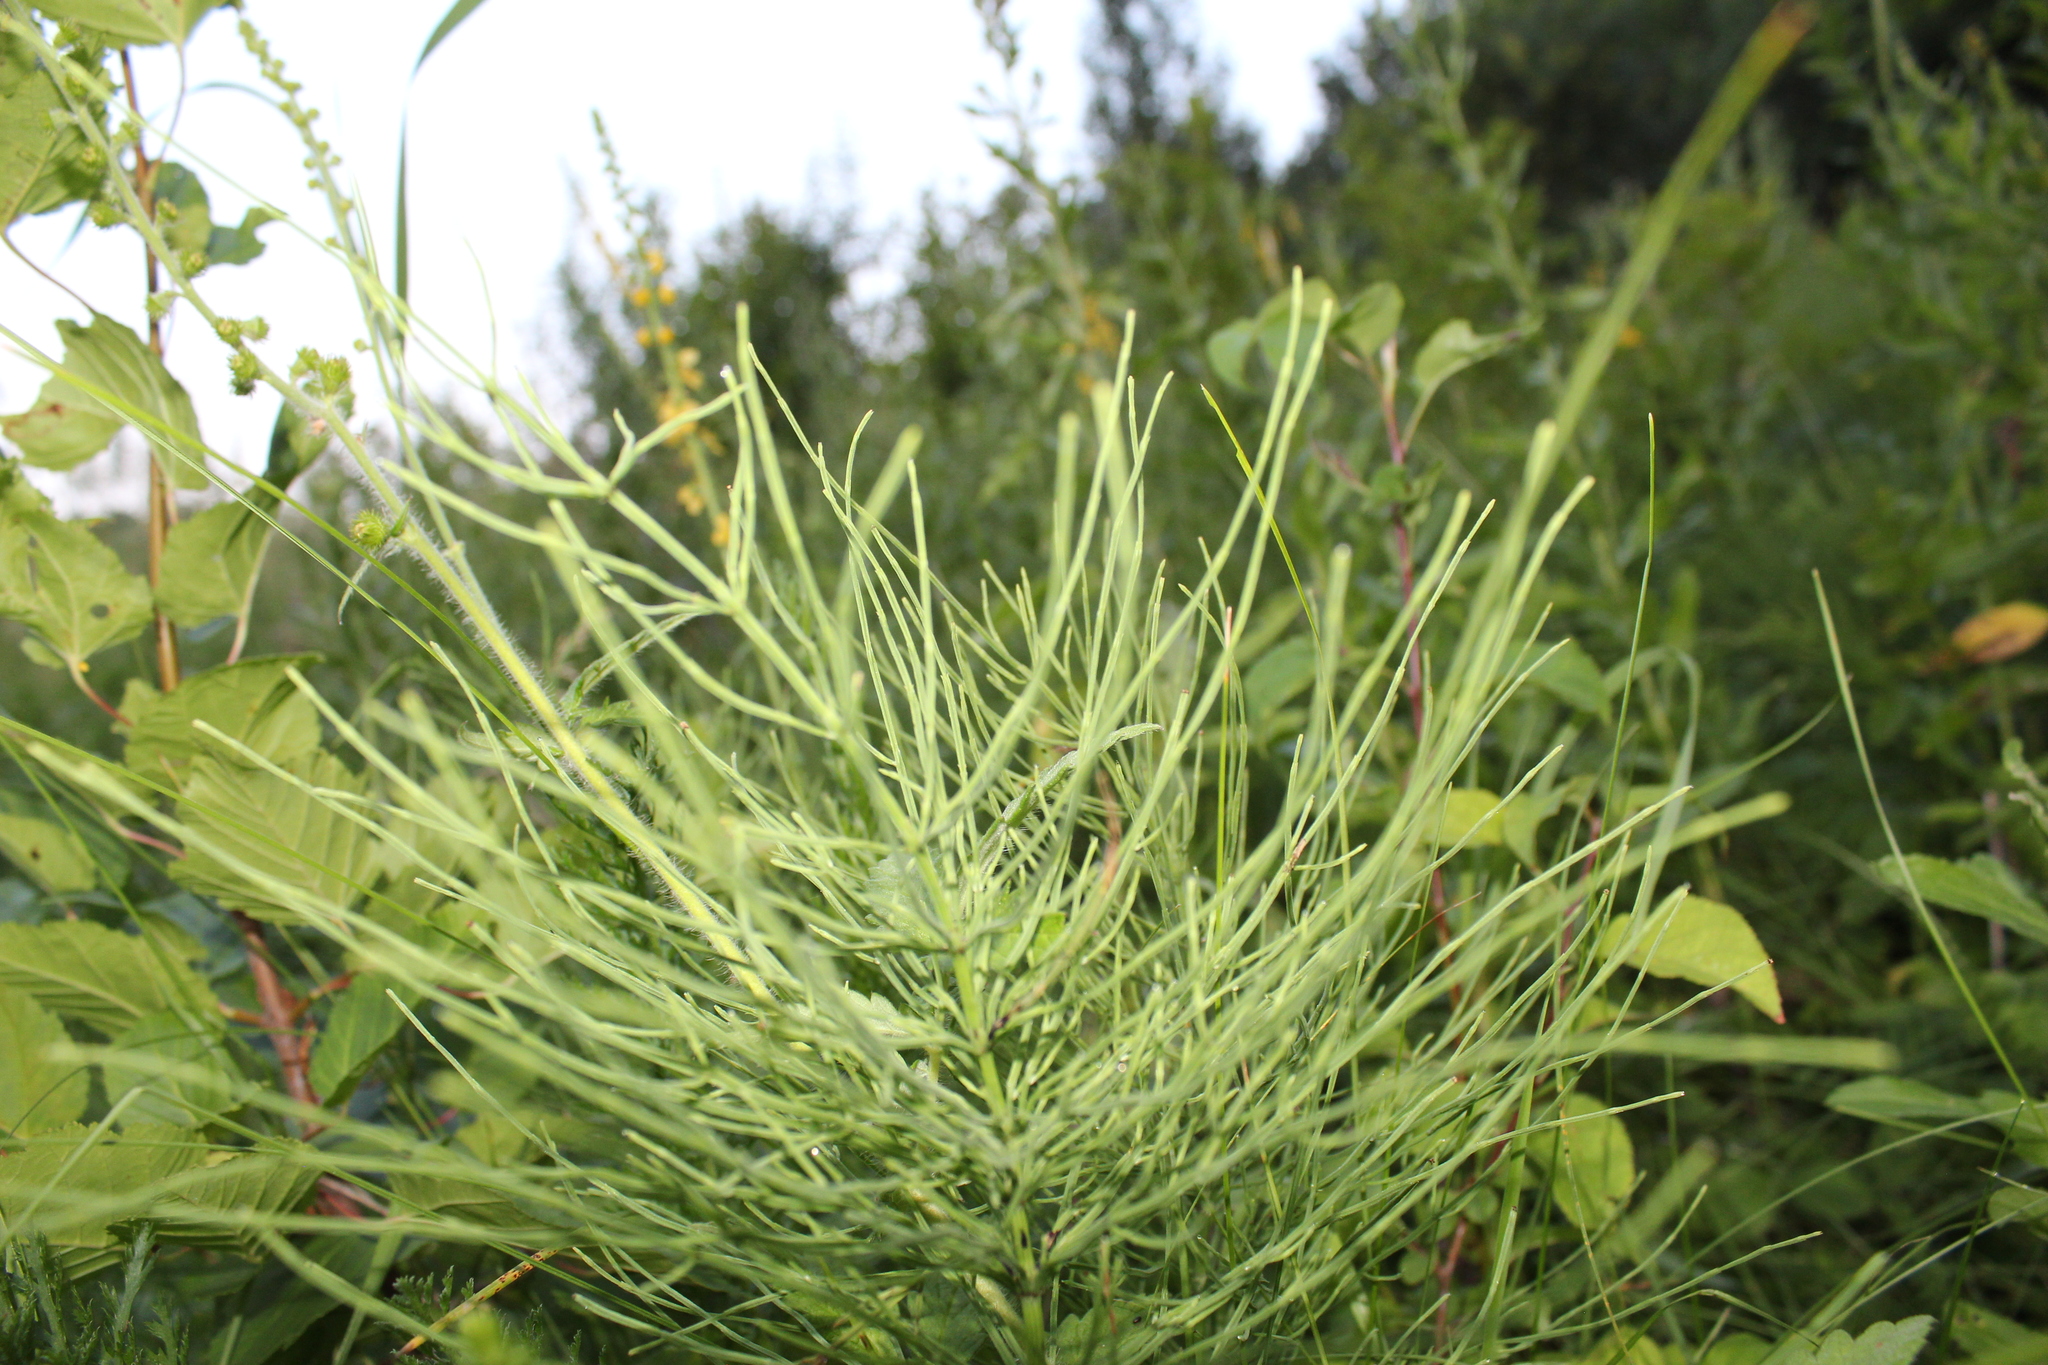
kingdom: Plantae
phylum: Tracheophyta
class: Polypodiopsida
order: Equisetales
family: Equisetaceae
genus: Equisetum
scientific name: Equisetum arvense
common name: Field horsetail
